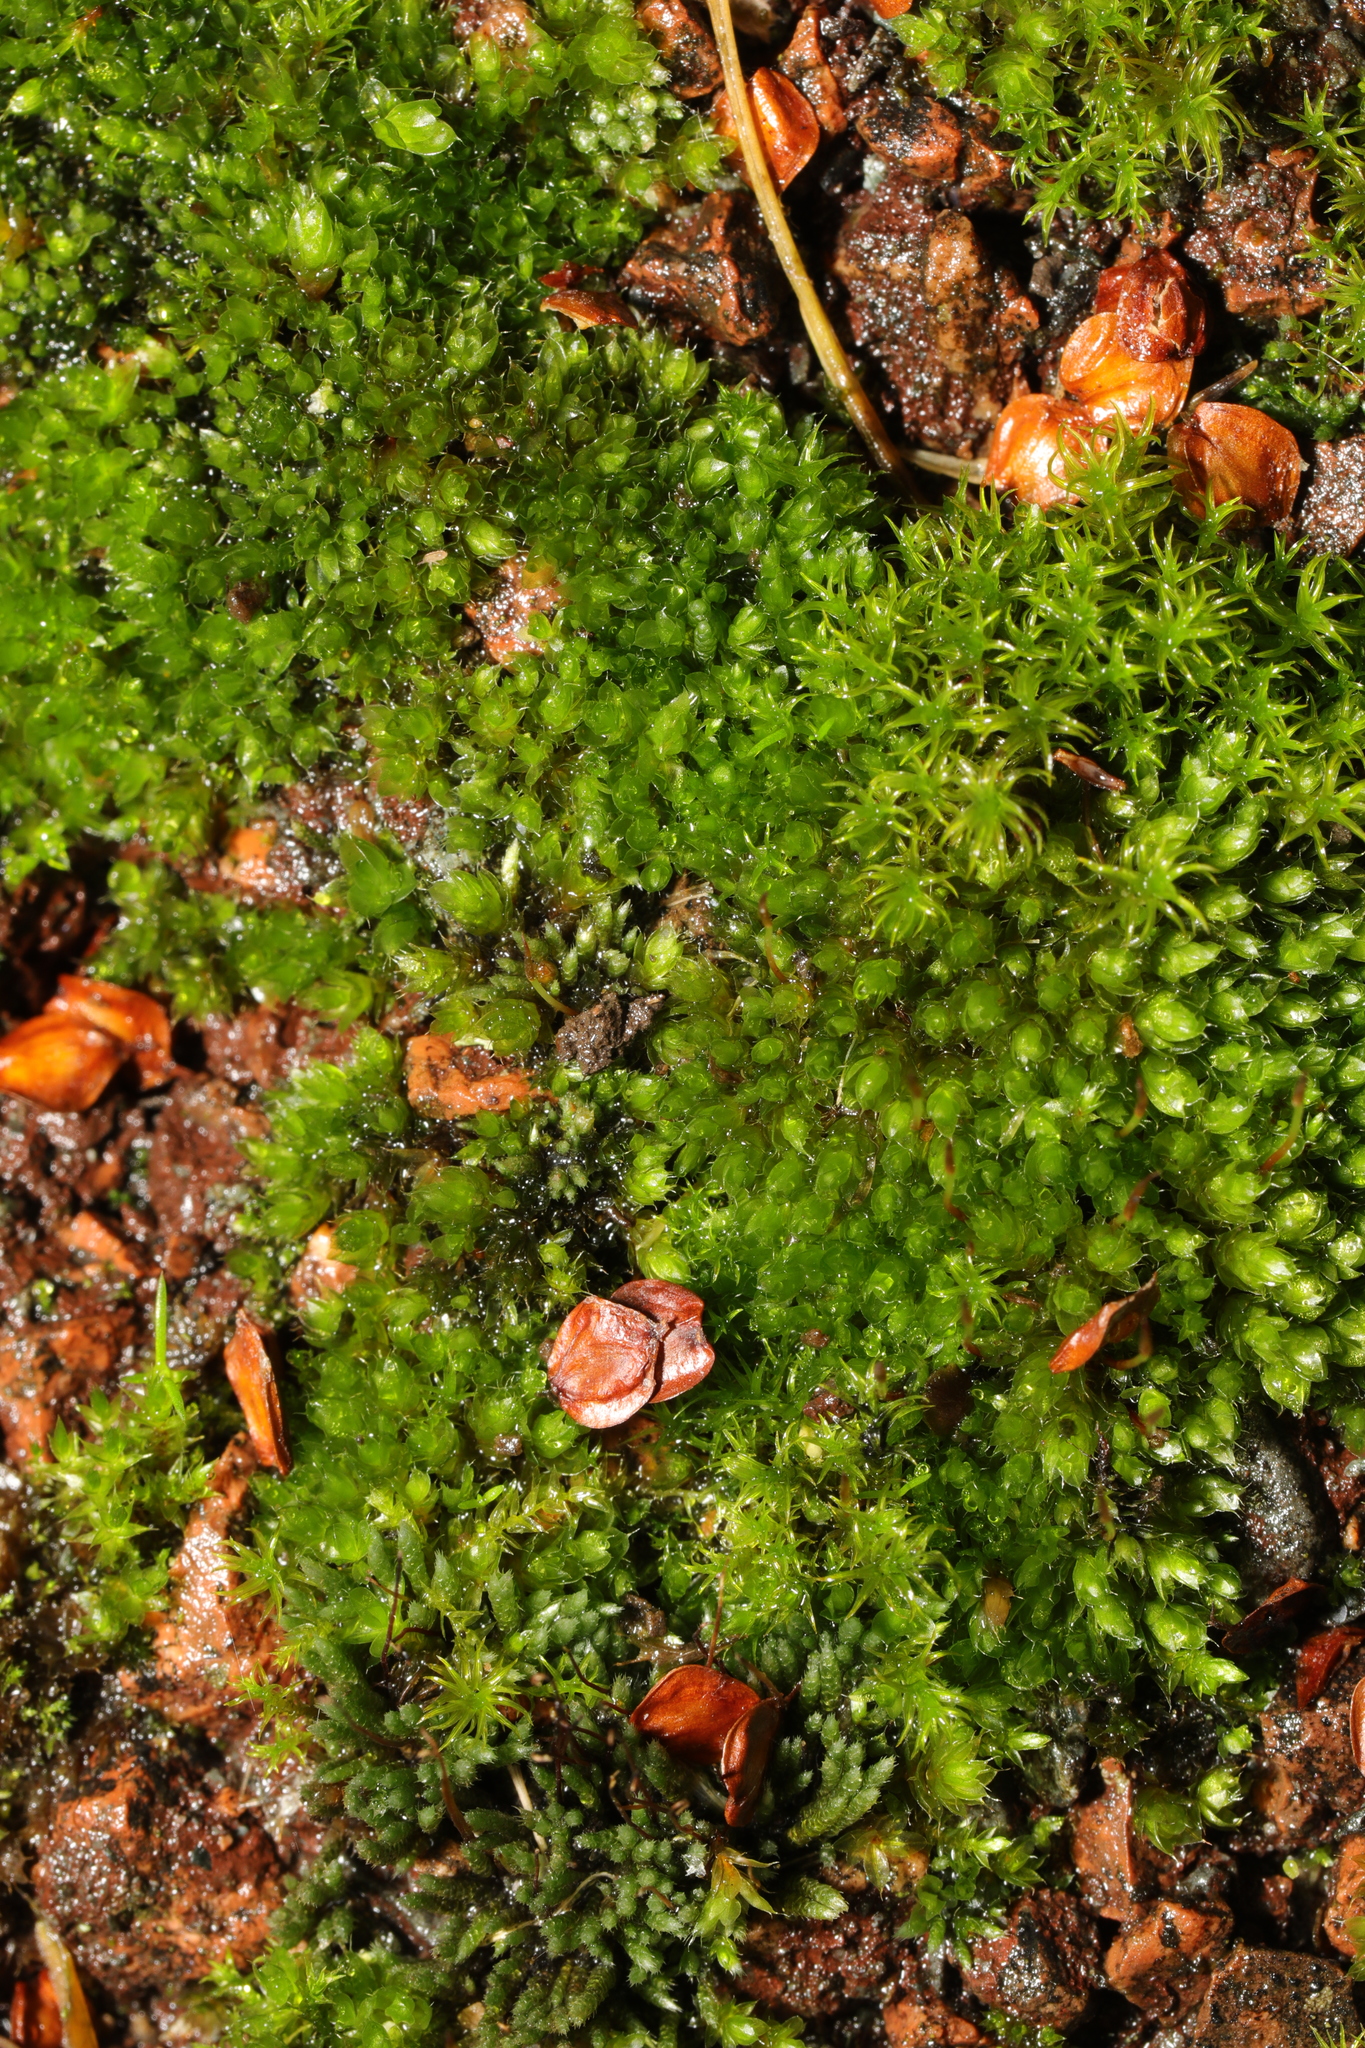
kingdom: Plantae
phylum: Bryophyta
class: Bryopsida
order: Bryales
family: Bryaceae
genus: Bryum
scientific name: Bryum argenteum
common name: Silver-moss
